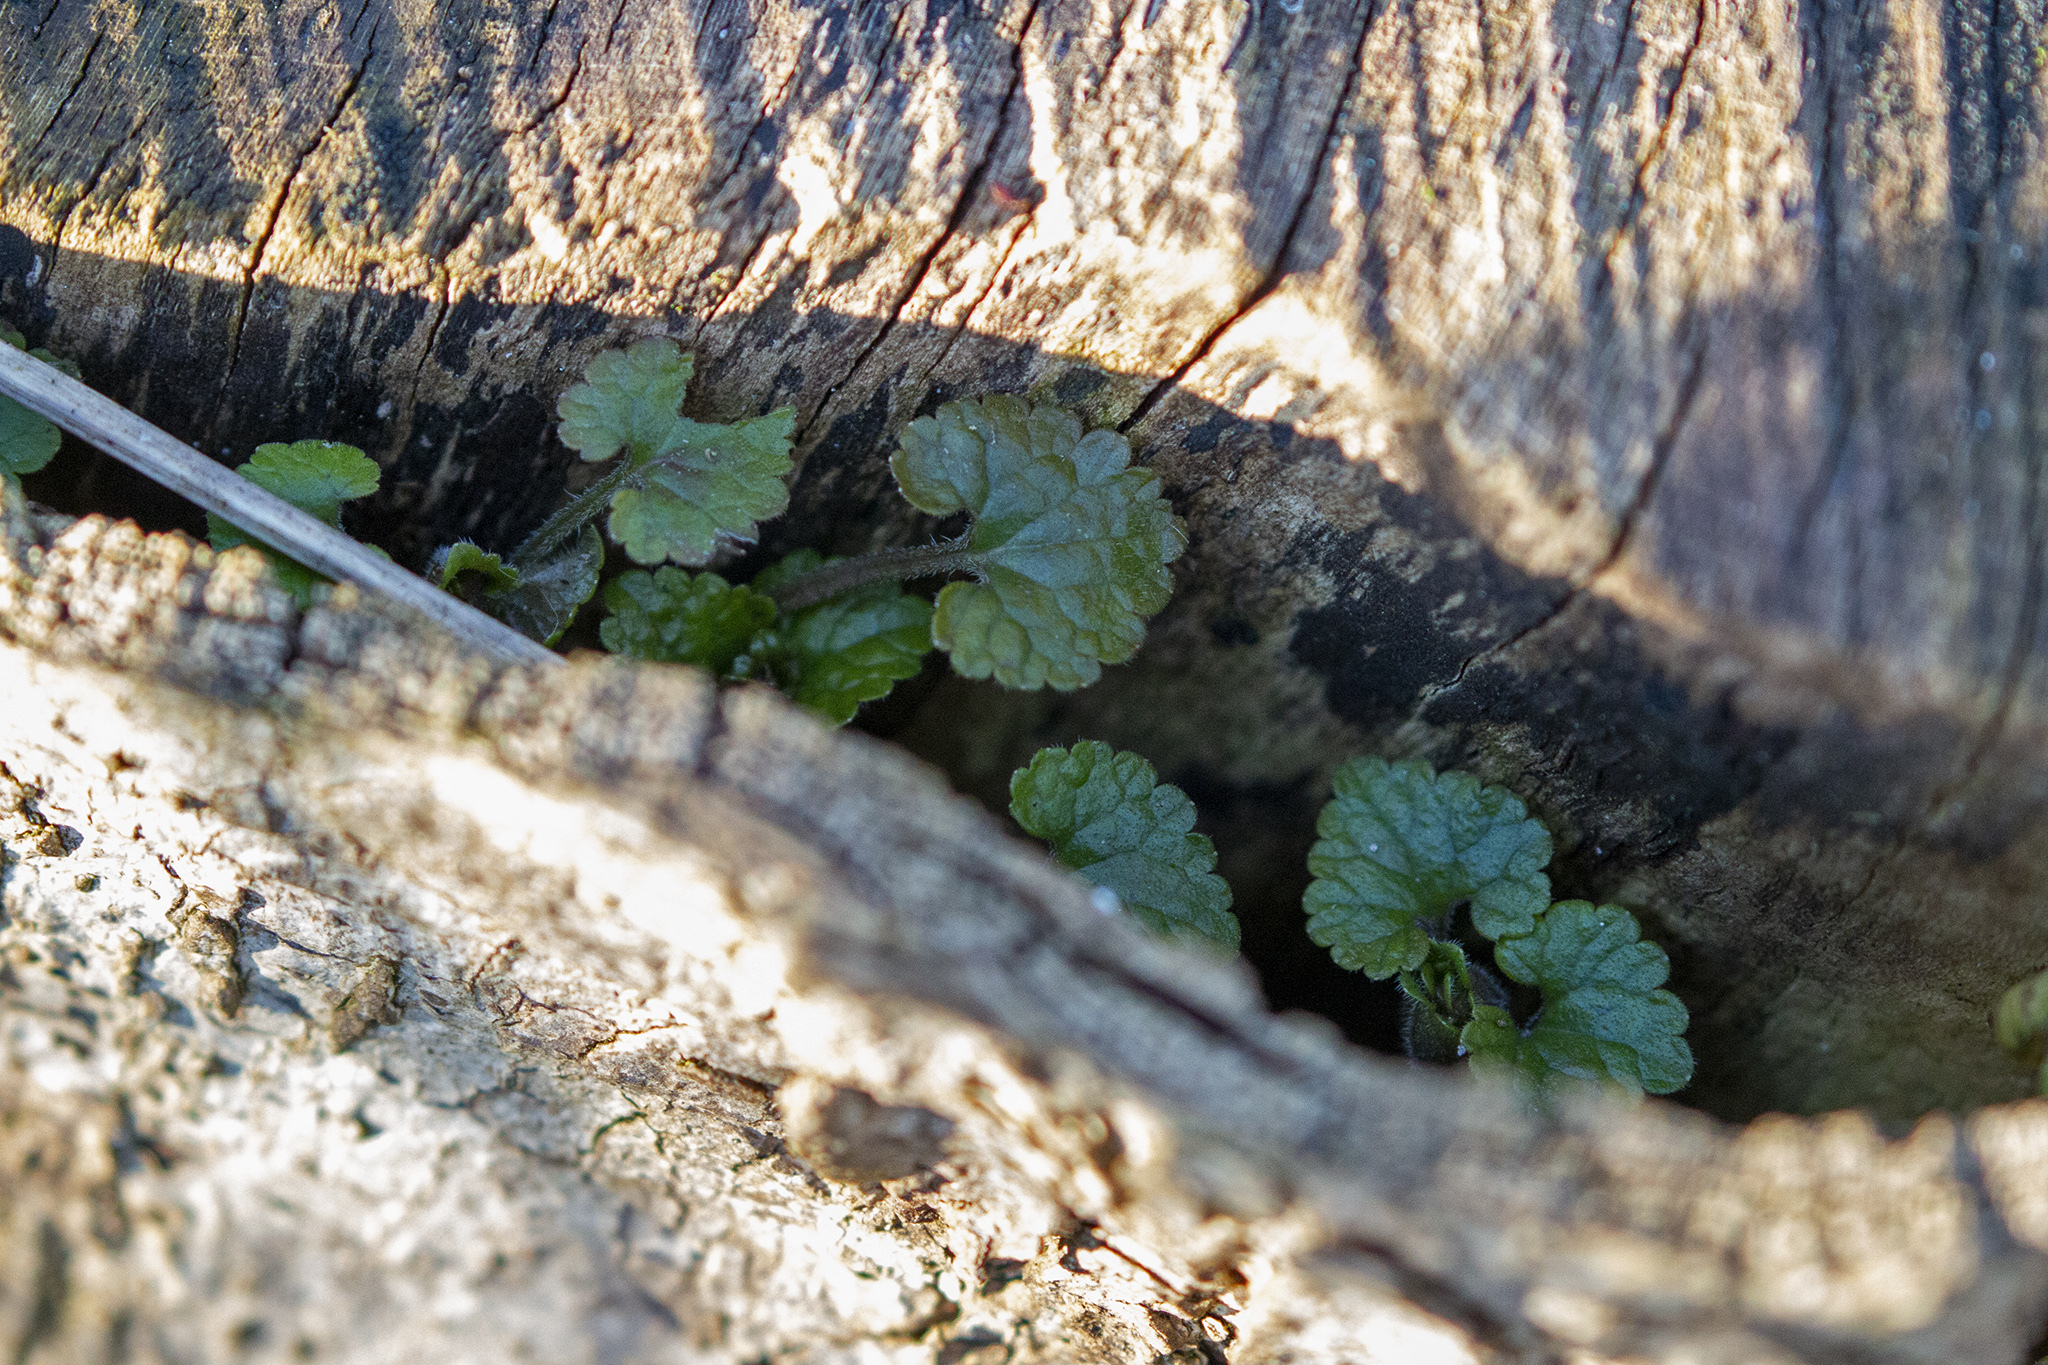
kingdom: Plantae
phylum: Tracheophyta
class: Magnoliopsida
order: Lamiales
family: Lamiaceae
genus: Glechoma
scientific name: Glechoma hederacea
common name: Ground ivy
